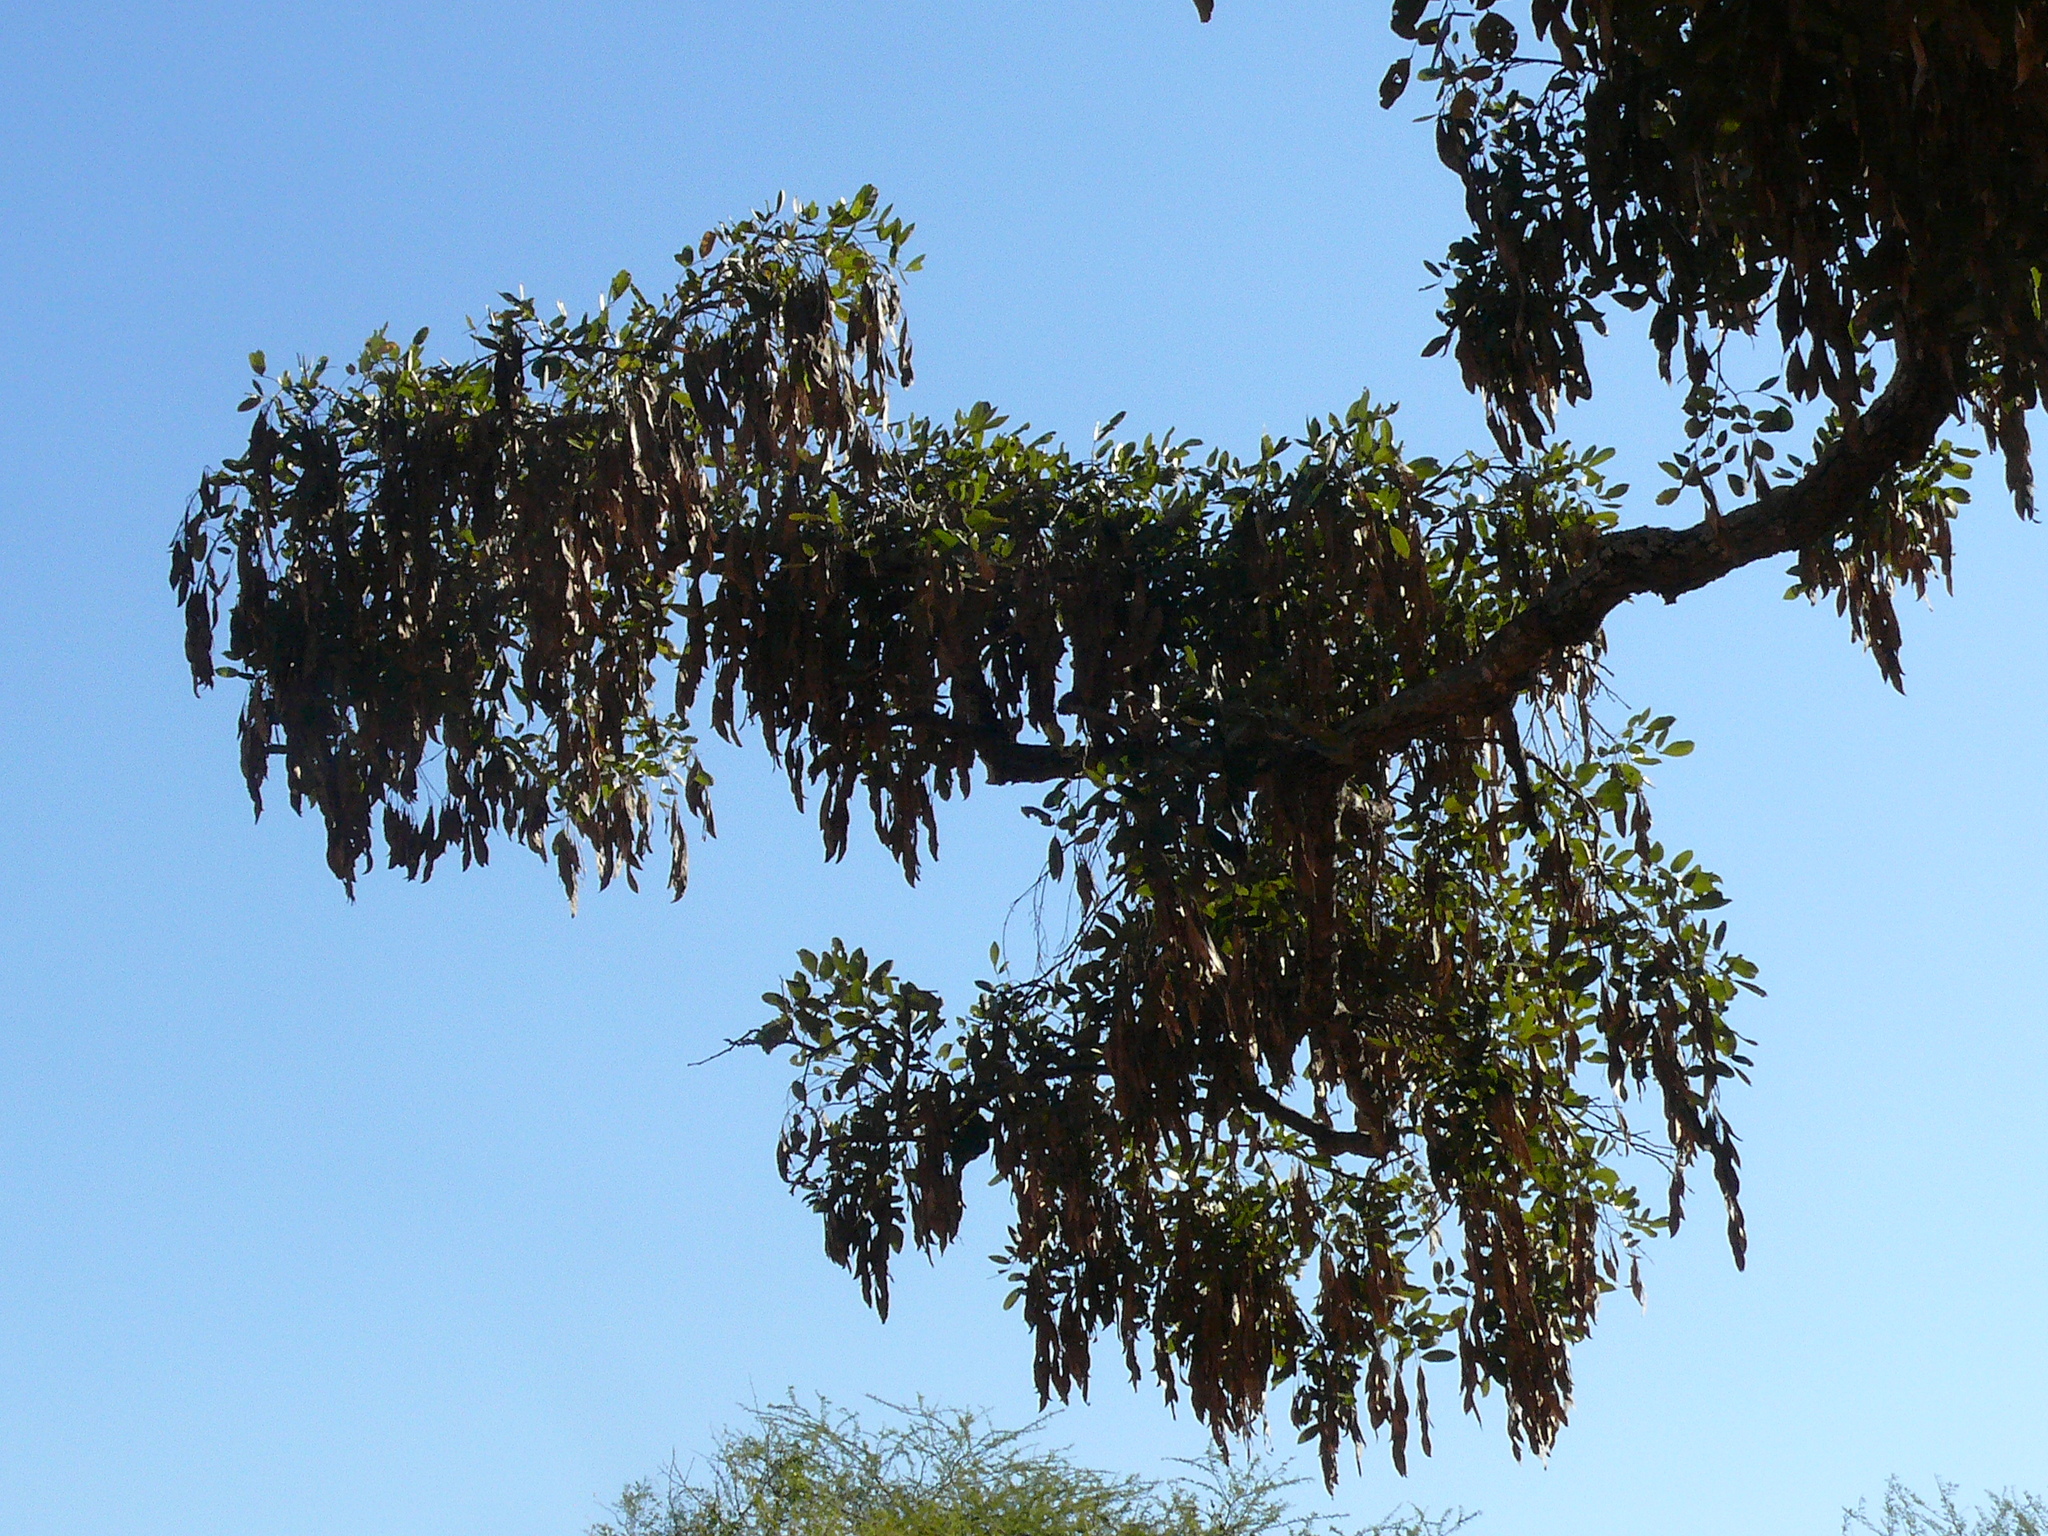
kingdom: Plantae
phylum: Tracheophyta
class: Magnoliopsida
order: Fabales
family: Fabaceae
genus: Philenoptera
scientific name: Philenoptera violacea
